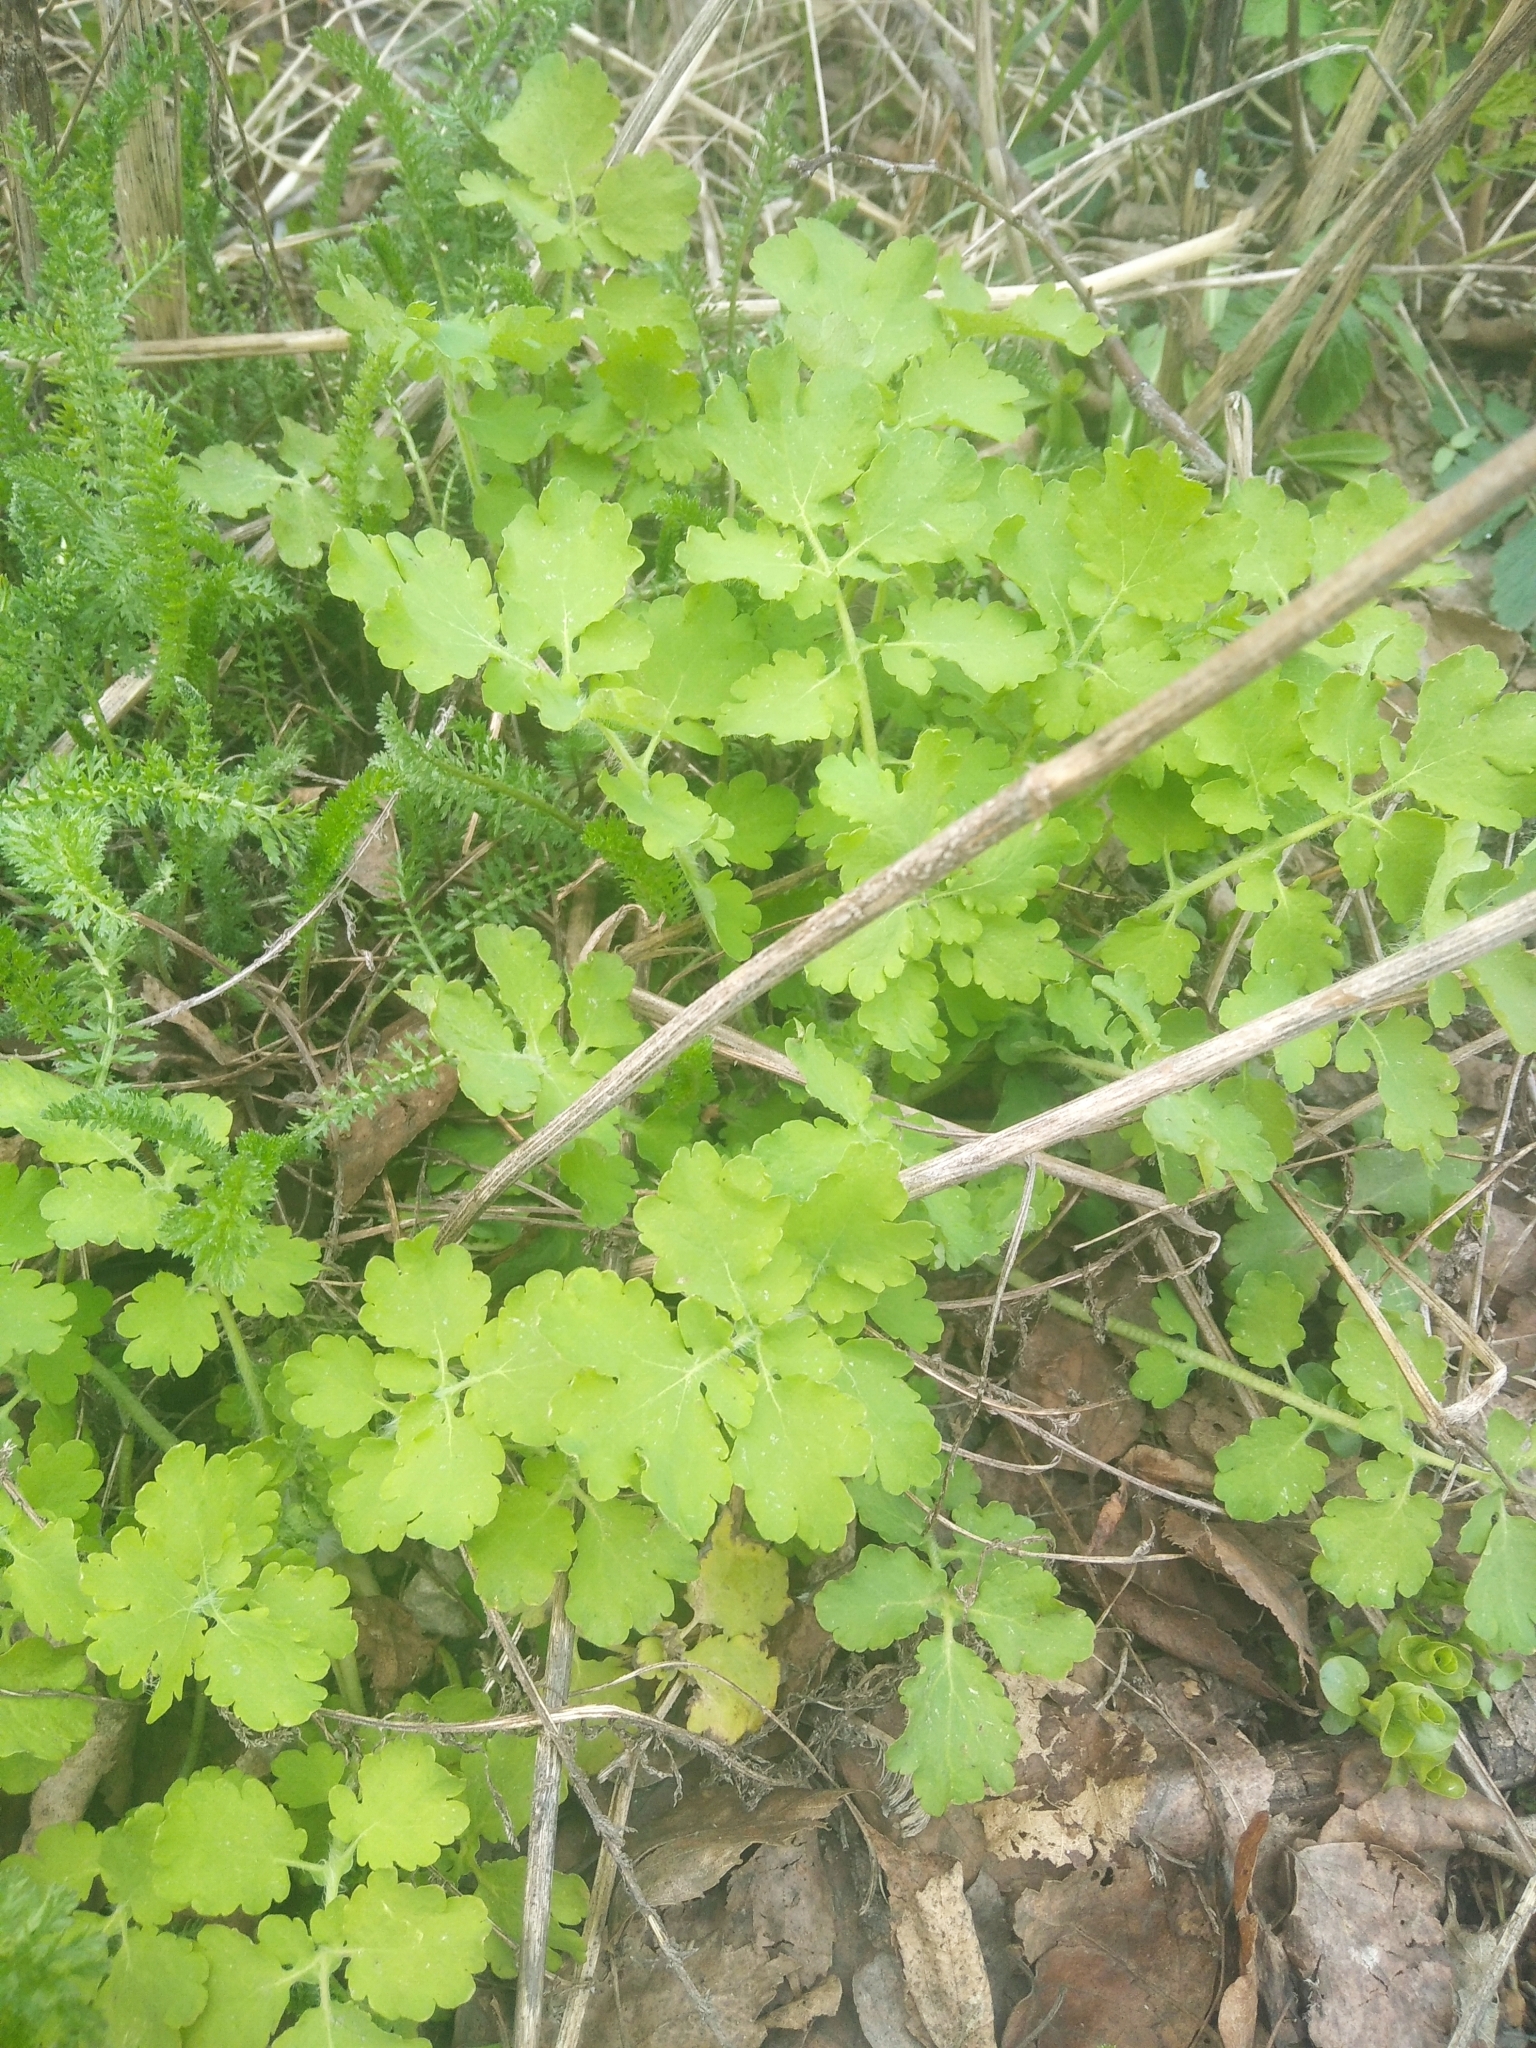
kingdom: Plantae
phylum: Tracheophyta
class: Magnoliopsida
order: Ranunculales
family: Papaveraceae
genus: Chelidonium
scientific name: Chelidonium majus
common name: Greater celandine
